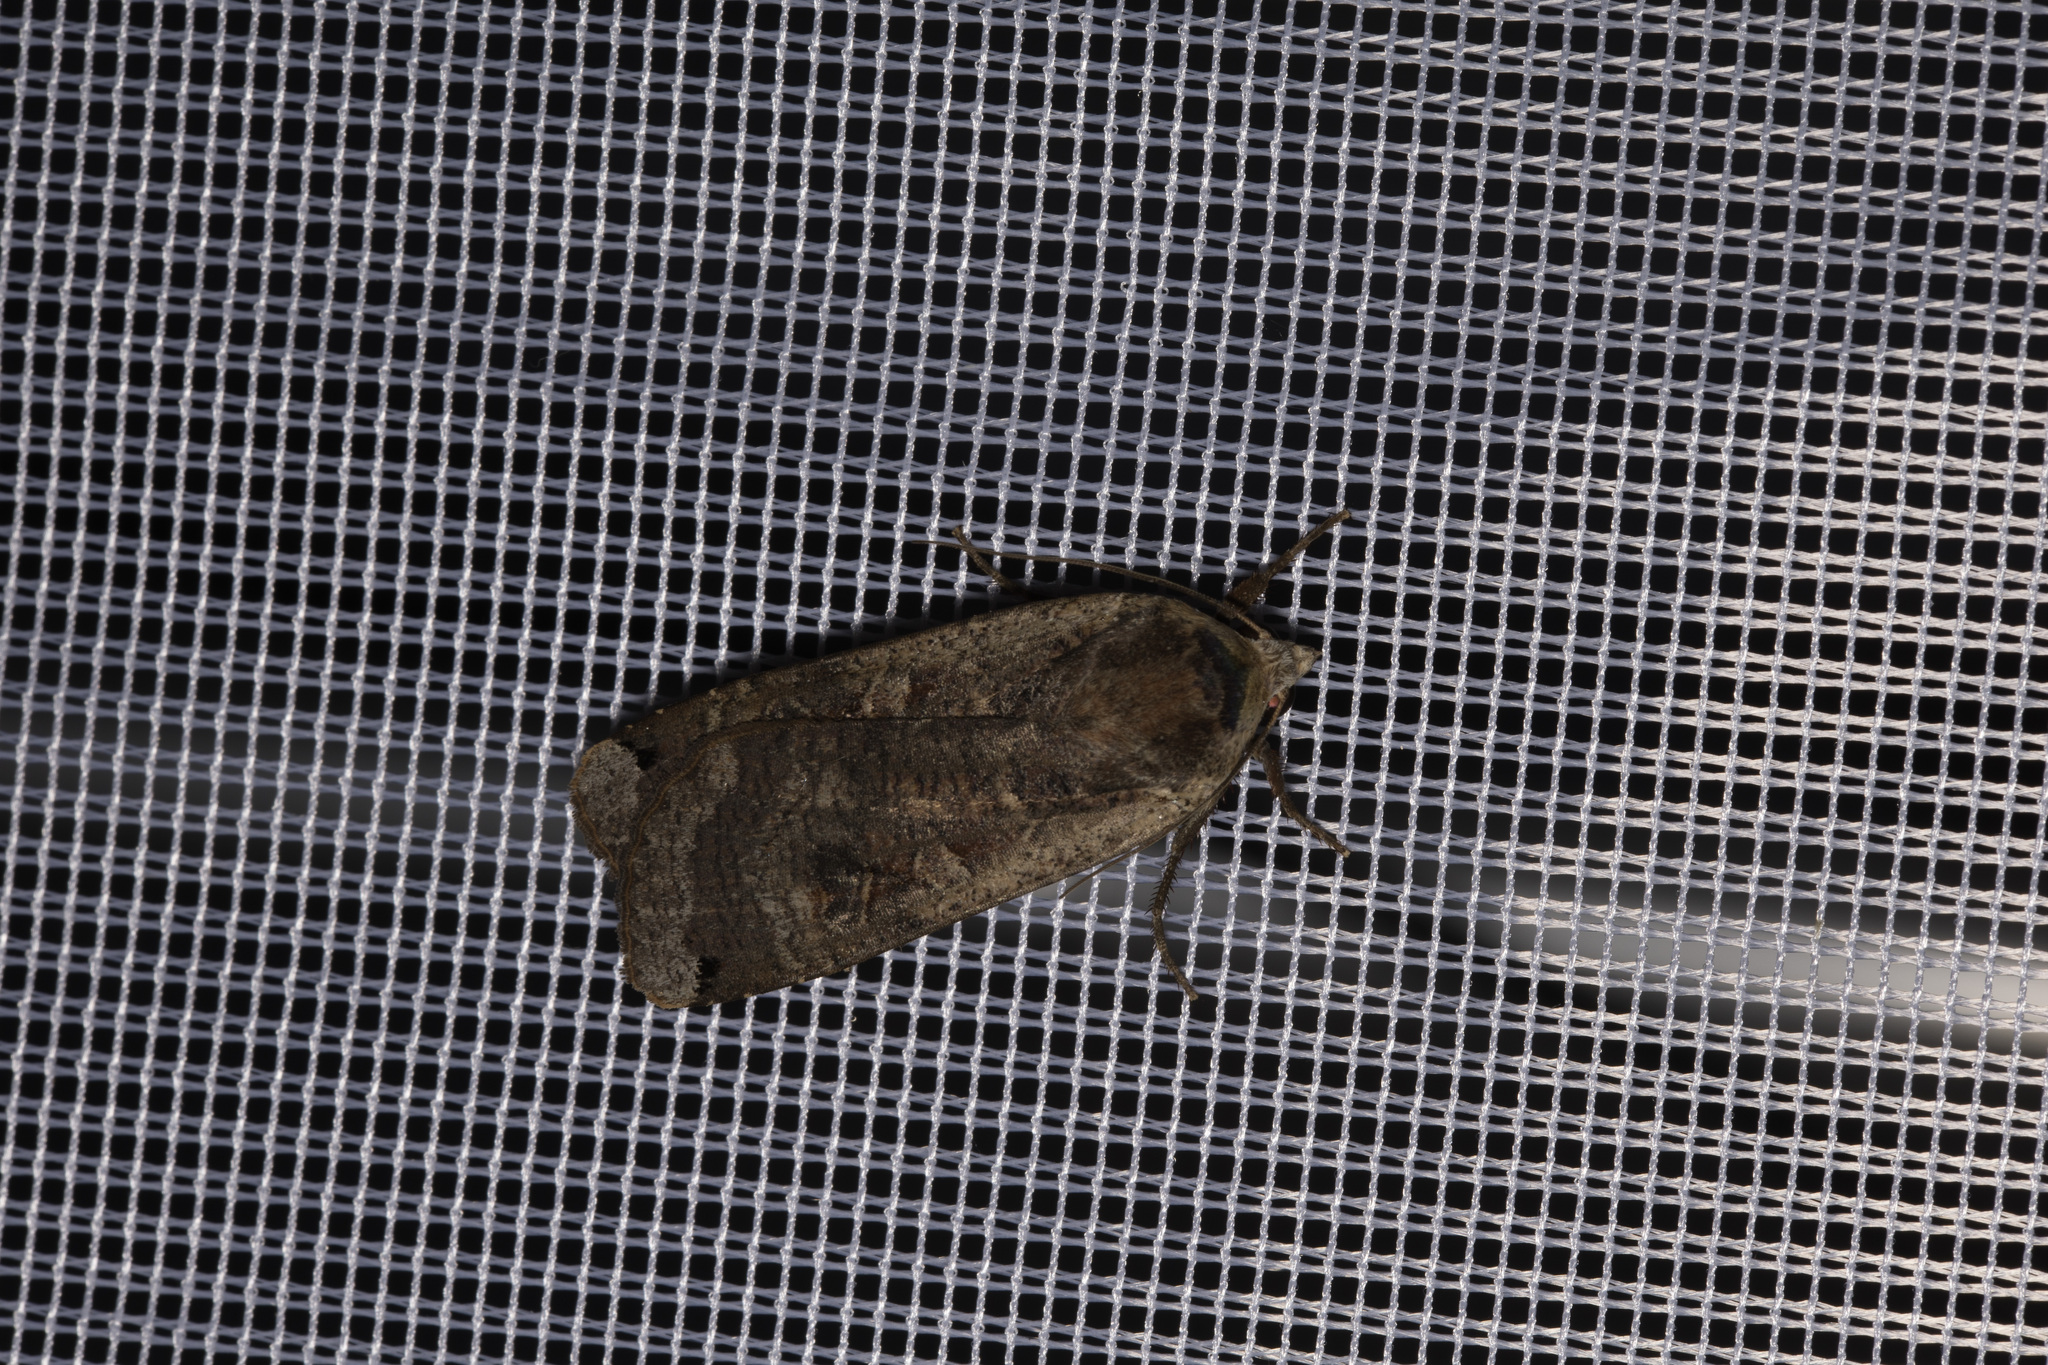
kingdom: Animalia
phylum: Arthropoda
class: Insecta
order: Lepidoptera
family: Noctuidae
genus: Noctua
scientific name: Noctua pronuba
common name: Large yellow underwing
